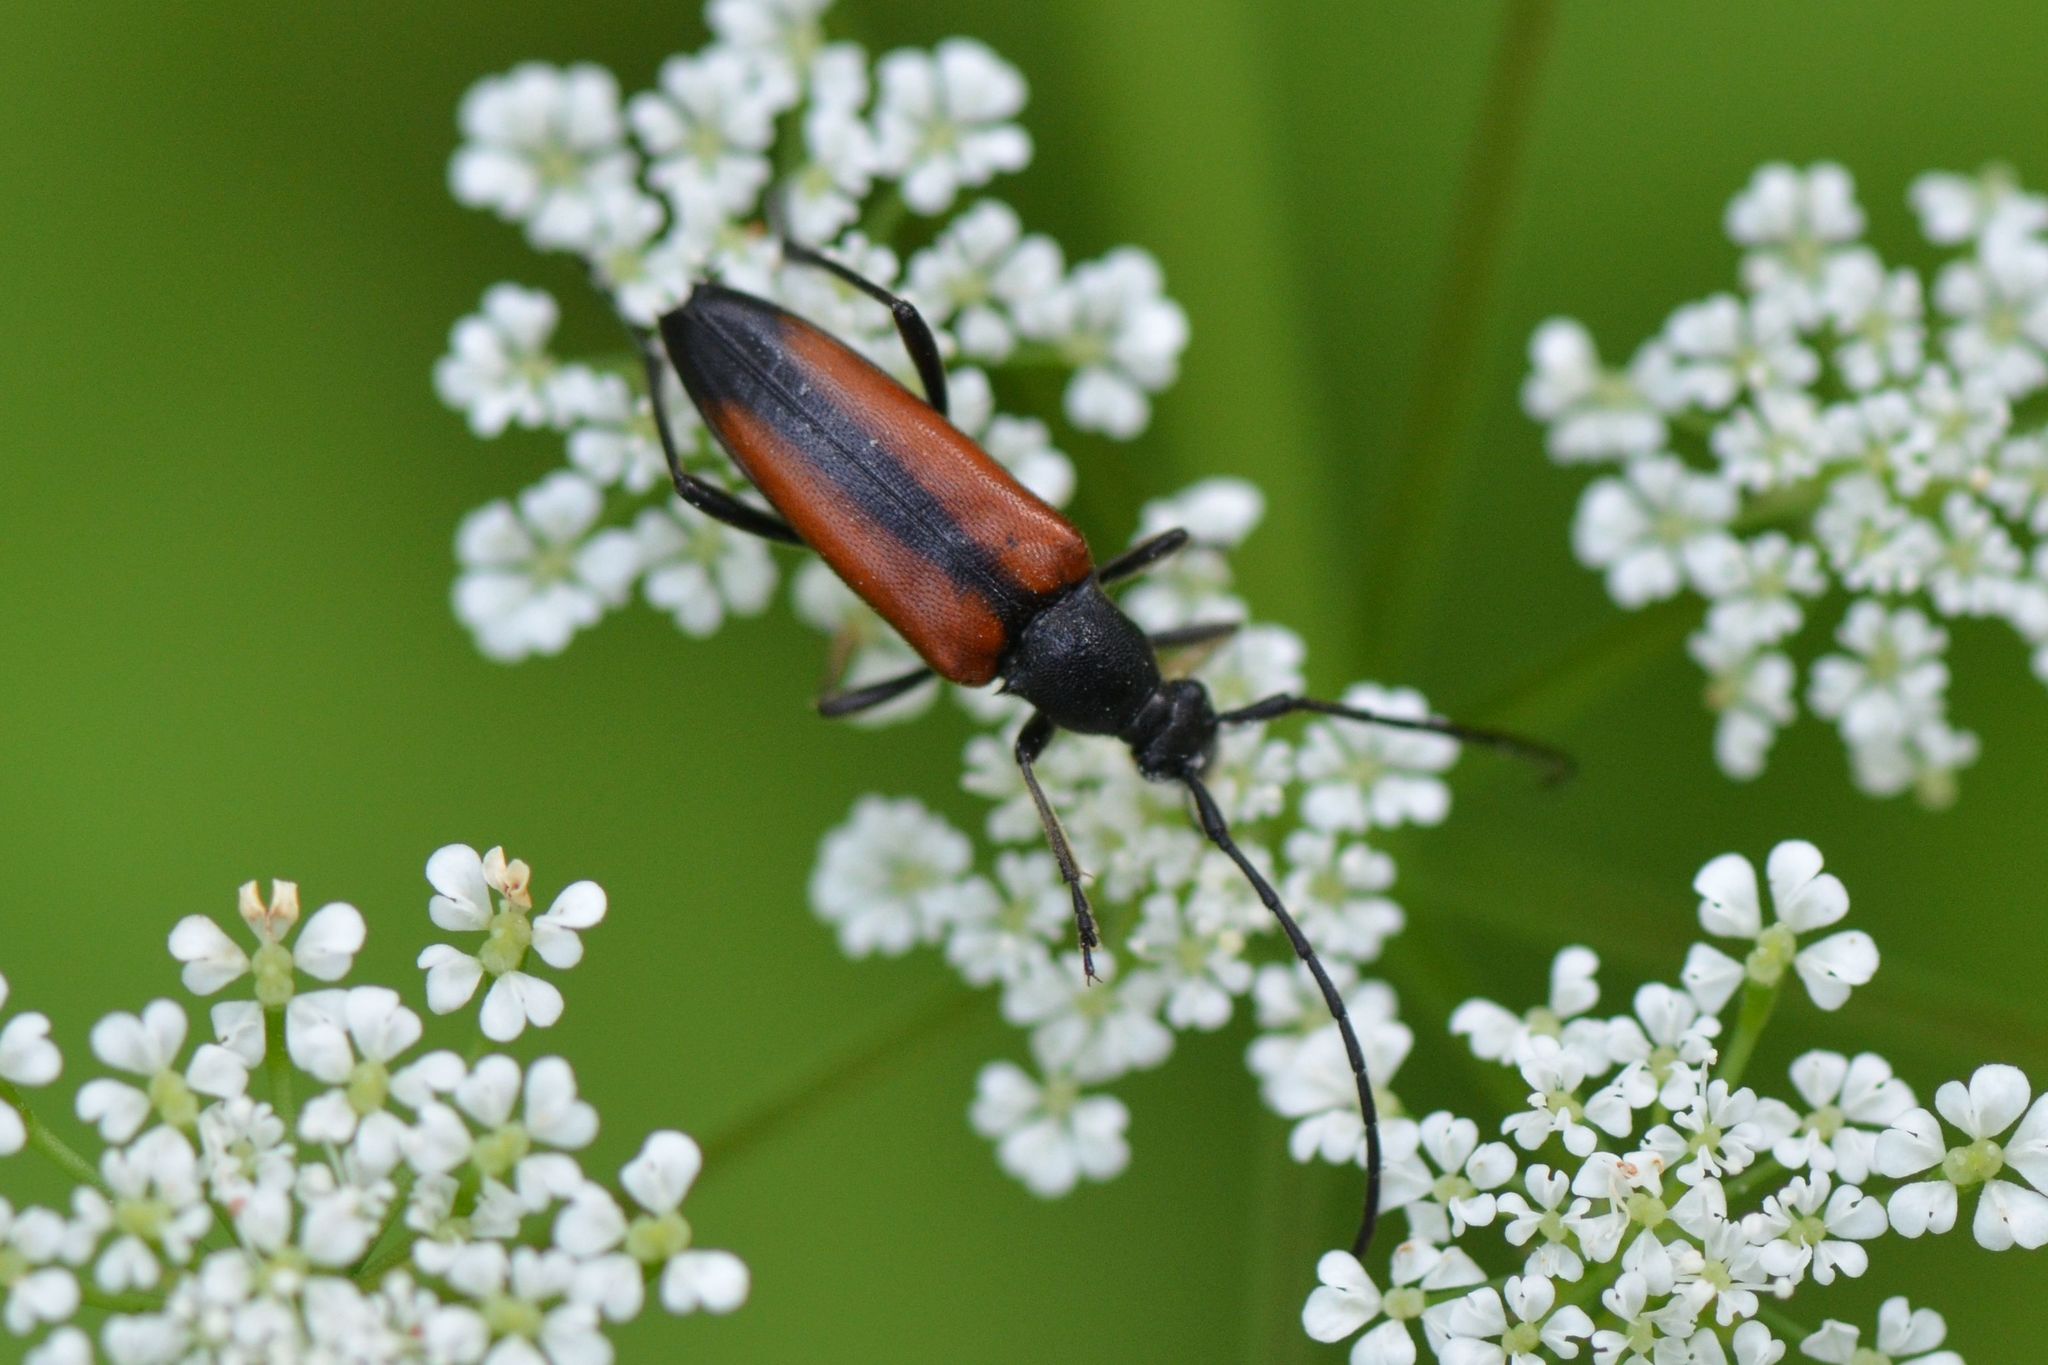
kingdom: Animalia
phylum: Arthropoda
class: Insecta
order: Coleoptera
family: Cerambycidae
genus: Stenurella
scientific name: Stenurella melanura
